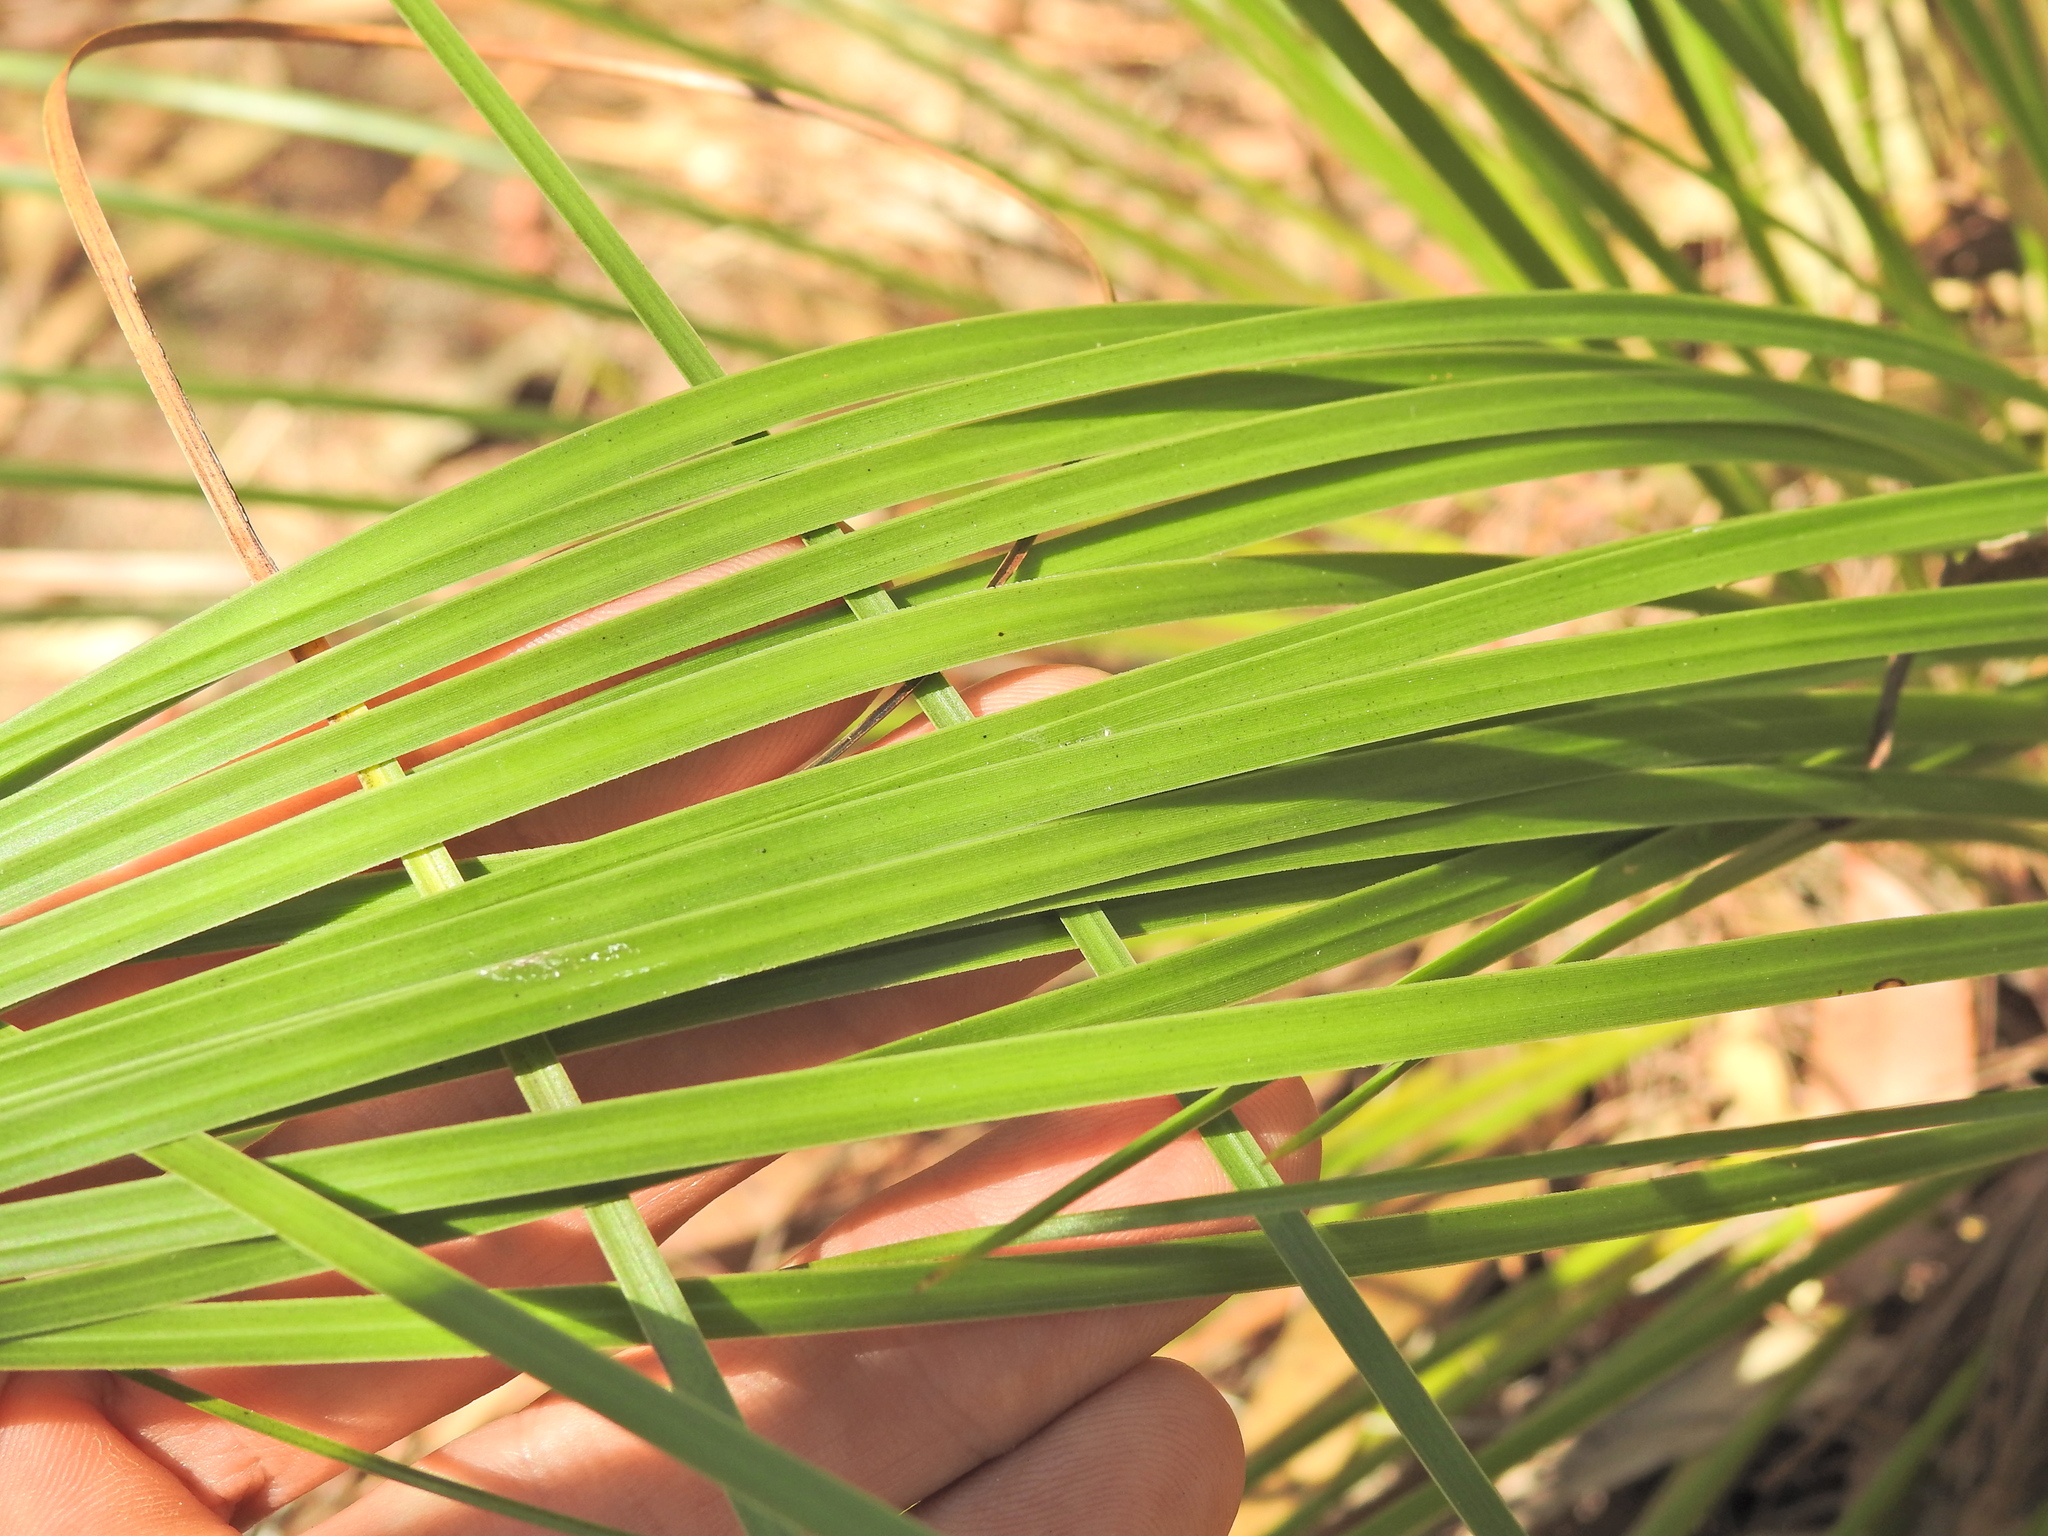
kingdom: Plantae
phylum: Tracheophyta
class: Liliopsida
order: Asparagales
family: Asphodelaceae
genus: Xanthorrhoea
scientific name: Xanthorrhoea latifolia
